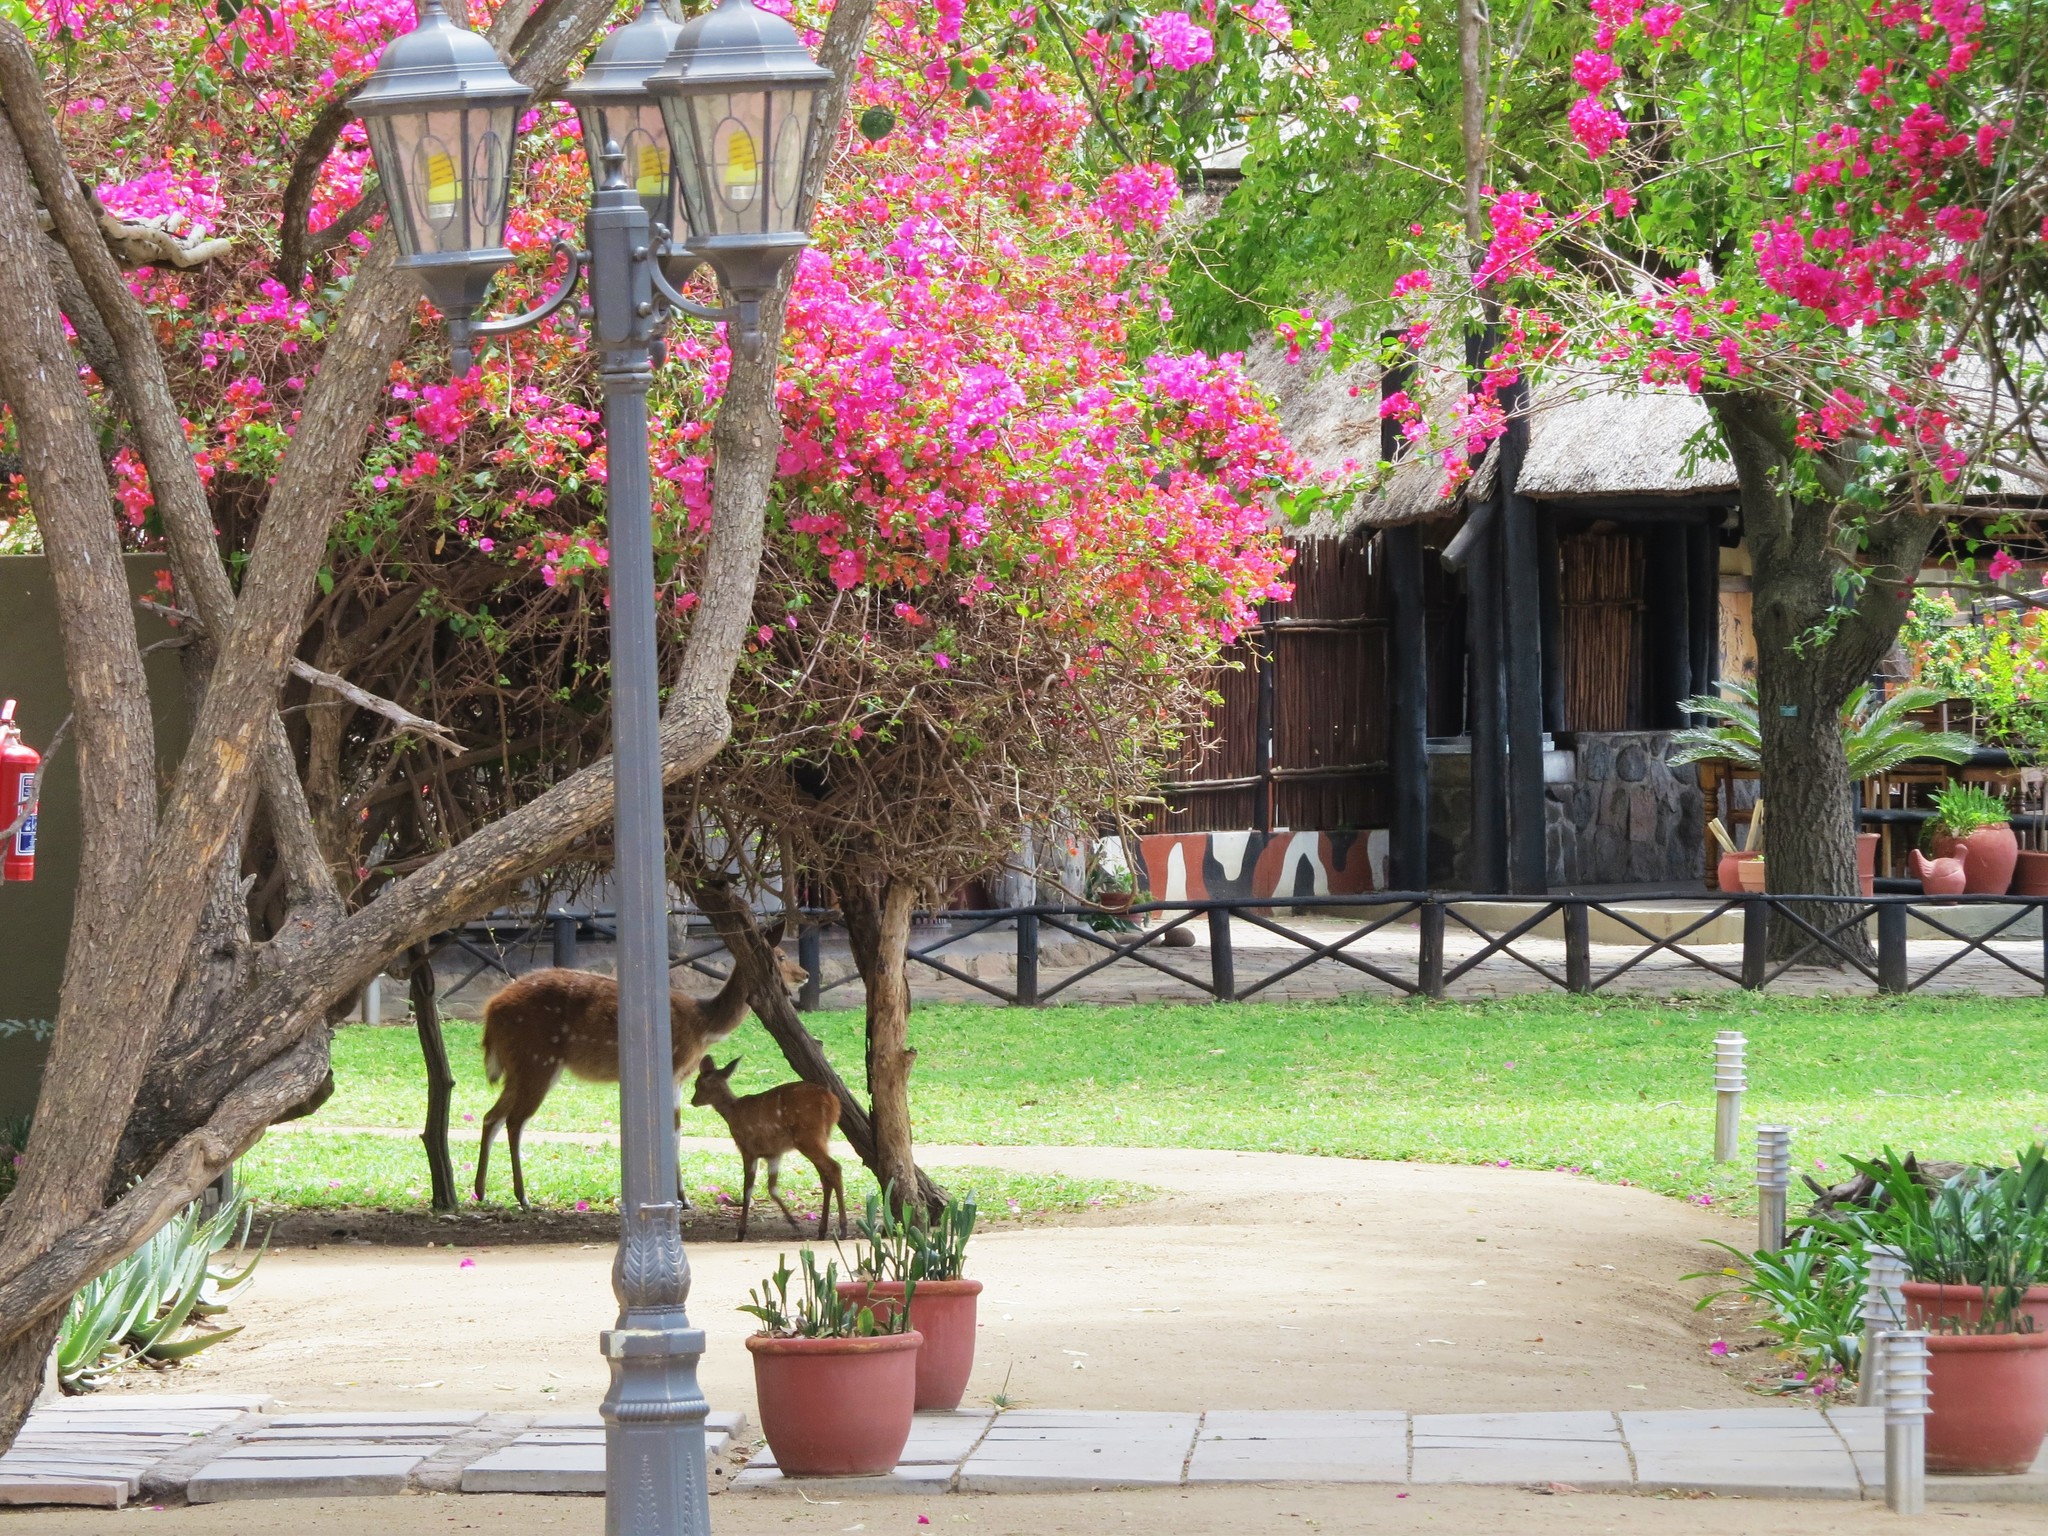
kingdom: Animalia
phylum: Chordata
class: Mammalia
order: Artiodactyla
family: Bovidae
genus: Tragelaphus
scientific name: Tragelaphus scriptus
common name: Bushbuck
